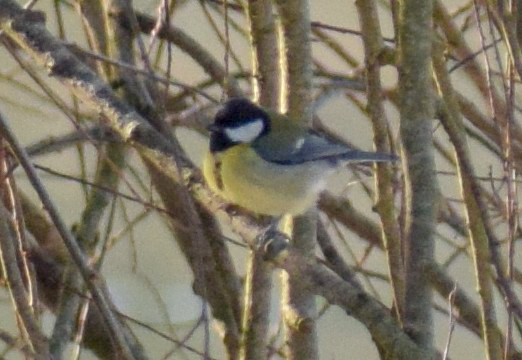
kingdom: Animalia
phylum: Chordata
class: Aves
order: Passeriformes
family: Paridae
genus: Parus
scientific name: Parus major
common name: Great tit
